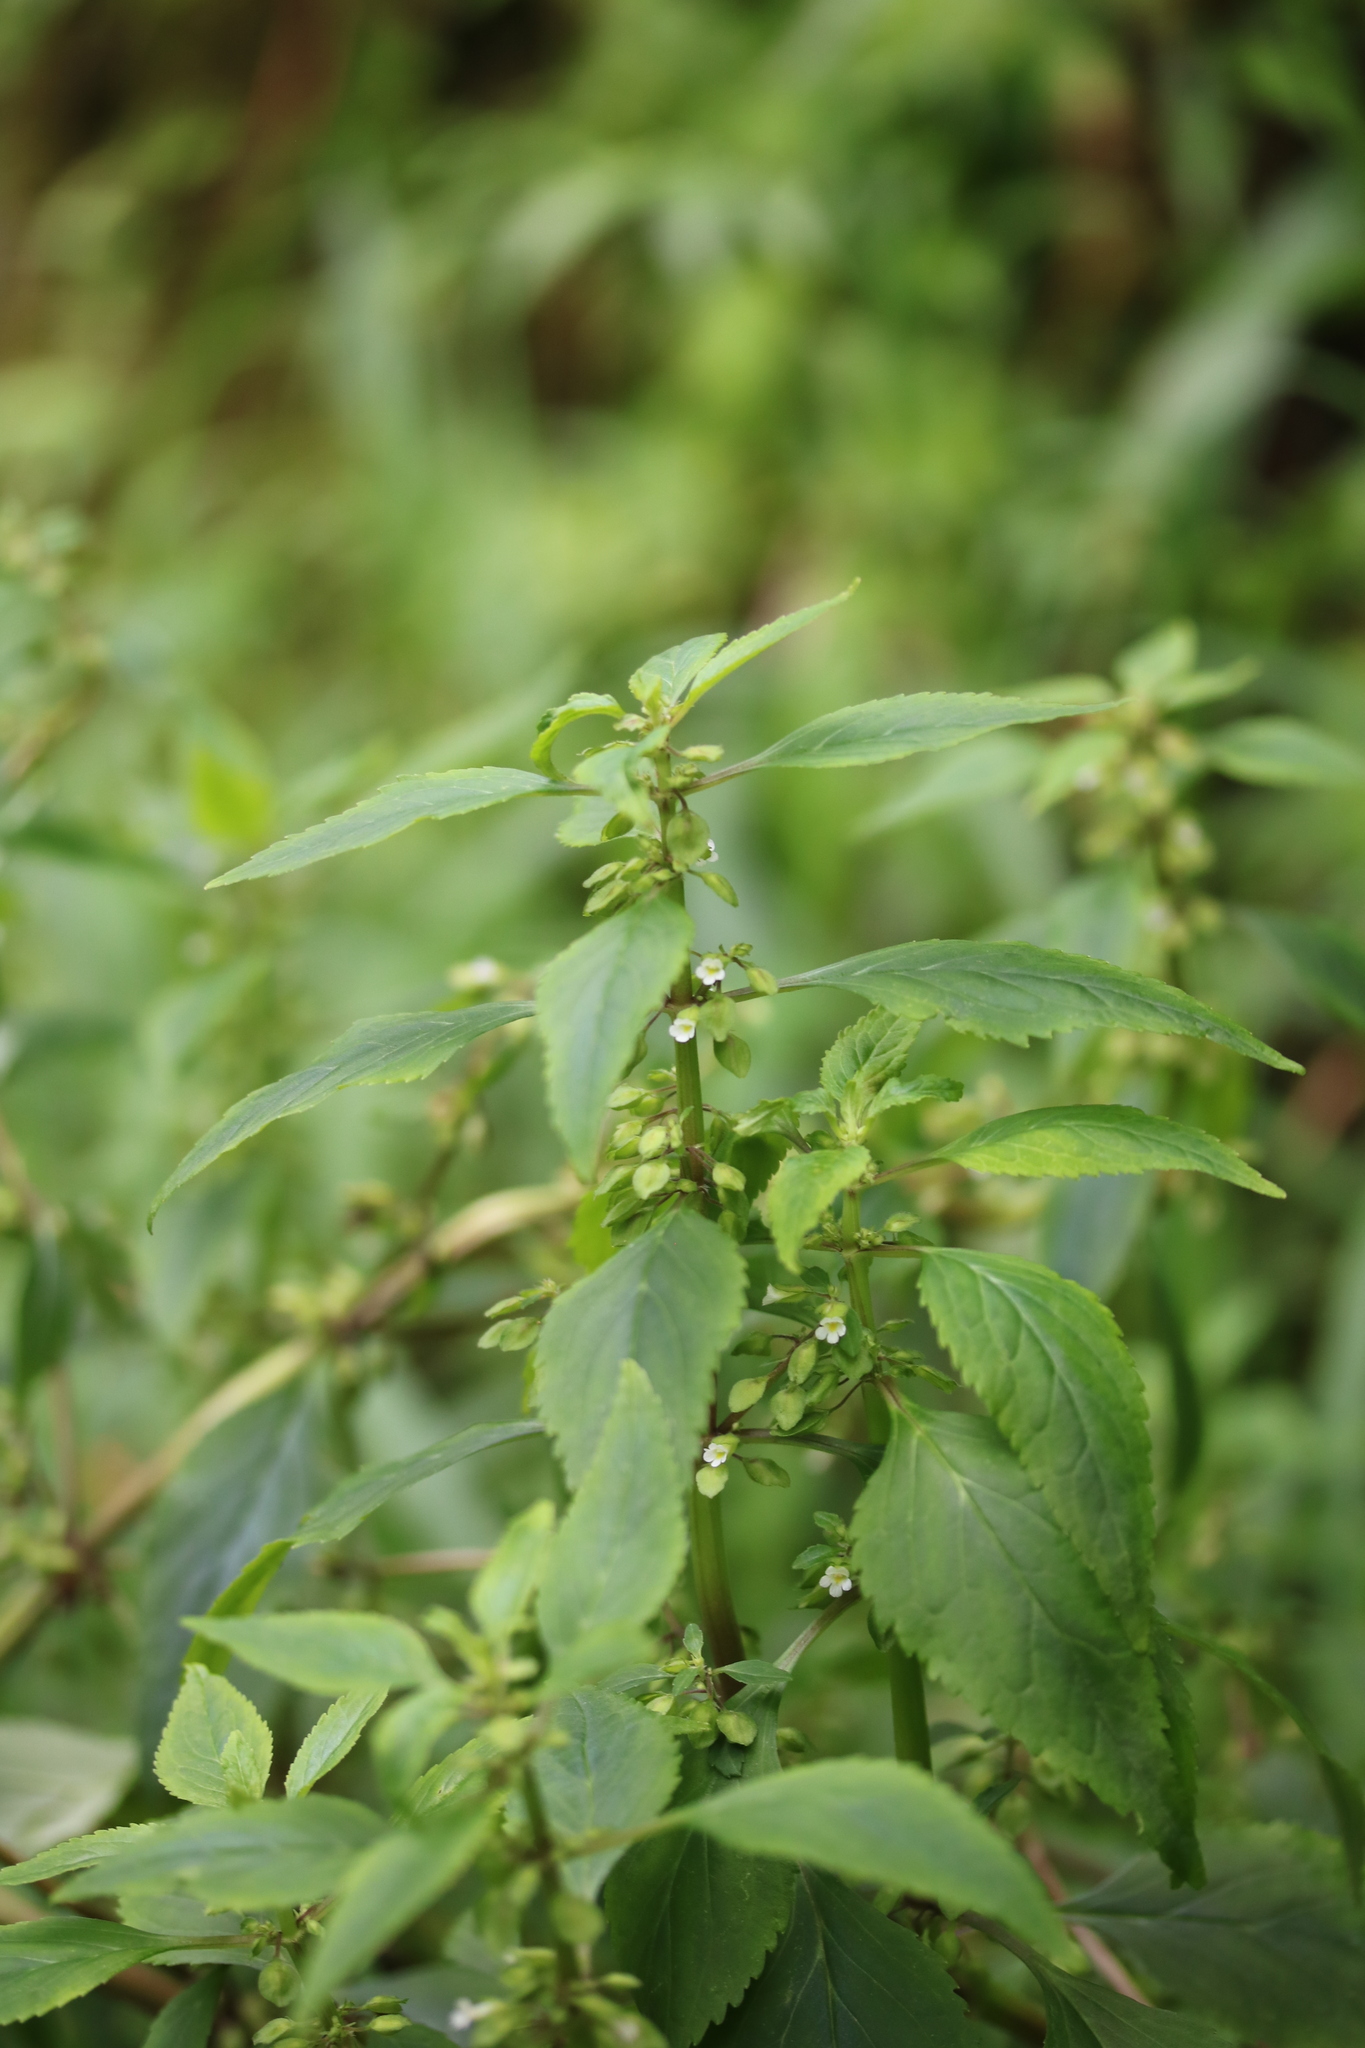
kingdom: Plantae
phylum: Tracheophyta
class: Magnoliopsida
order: Lamiales
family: Plantaginaceae
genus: Bacopa
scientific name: Bacopa stricta
